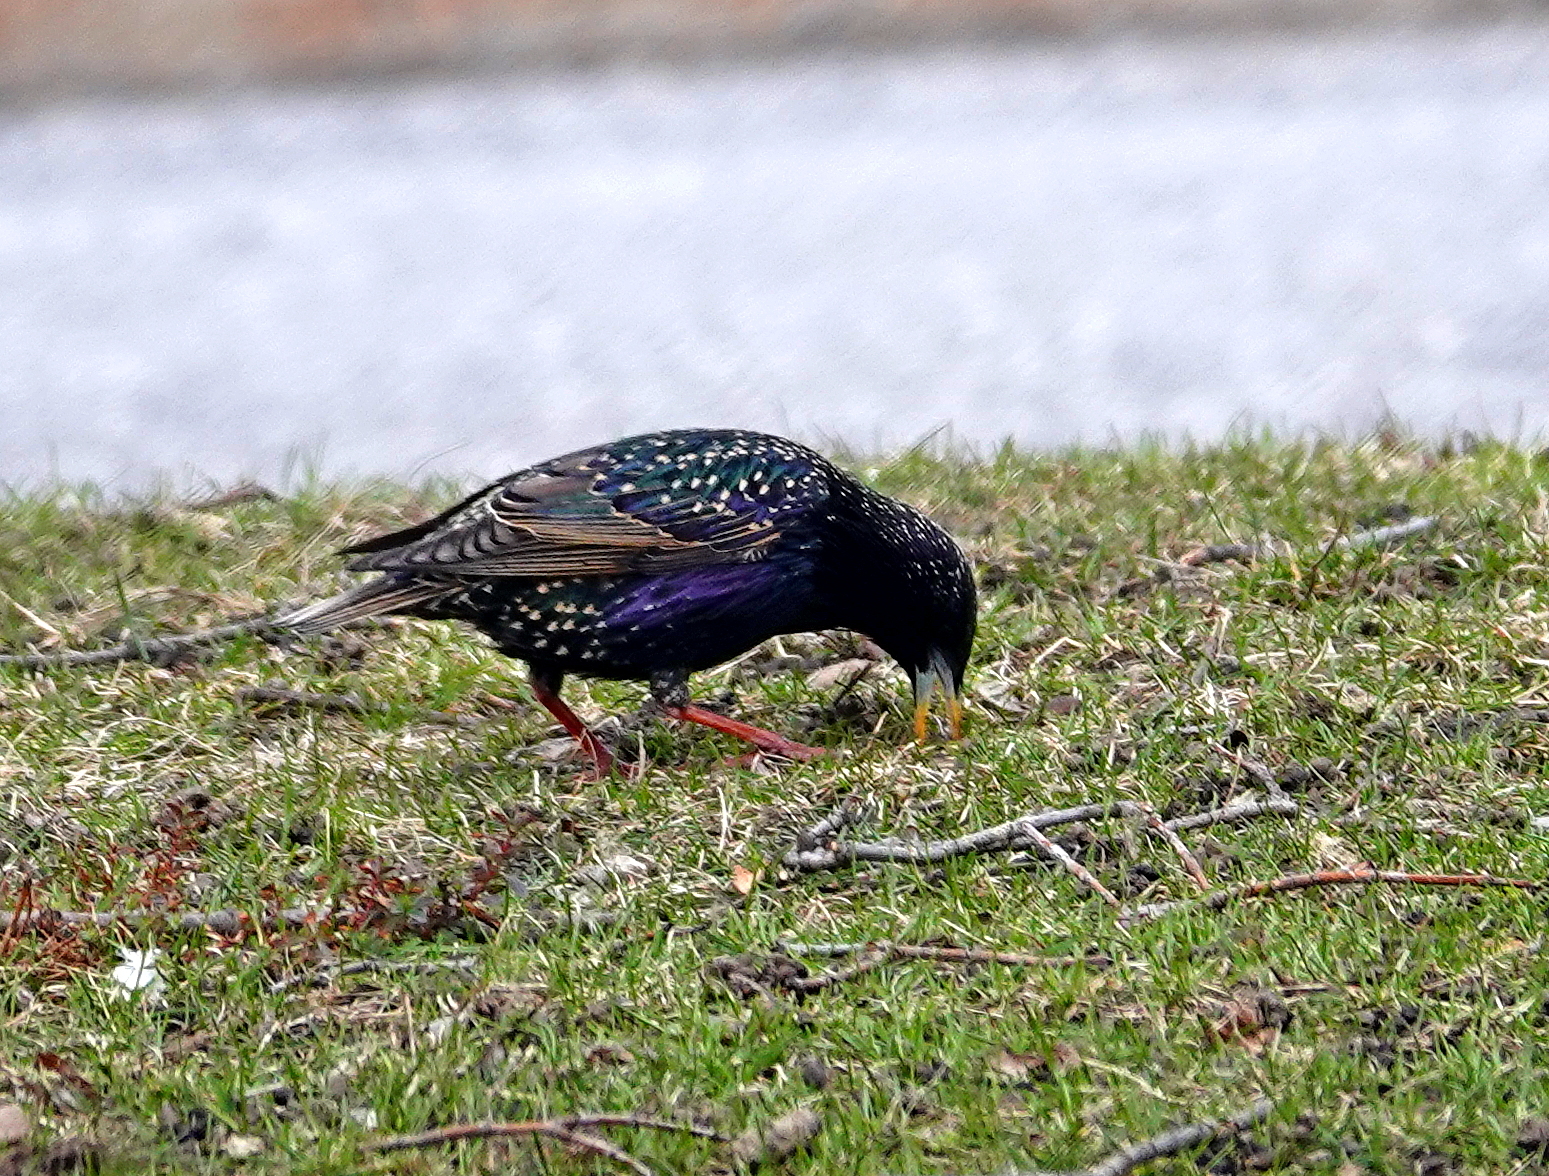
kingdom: Animalia
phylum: Chordata
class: Aves
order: Passeriformes
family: Sturnidae
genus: Sturnus
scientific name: Sturnus vulgaris
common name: Common starling
